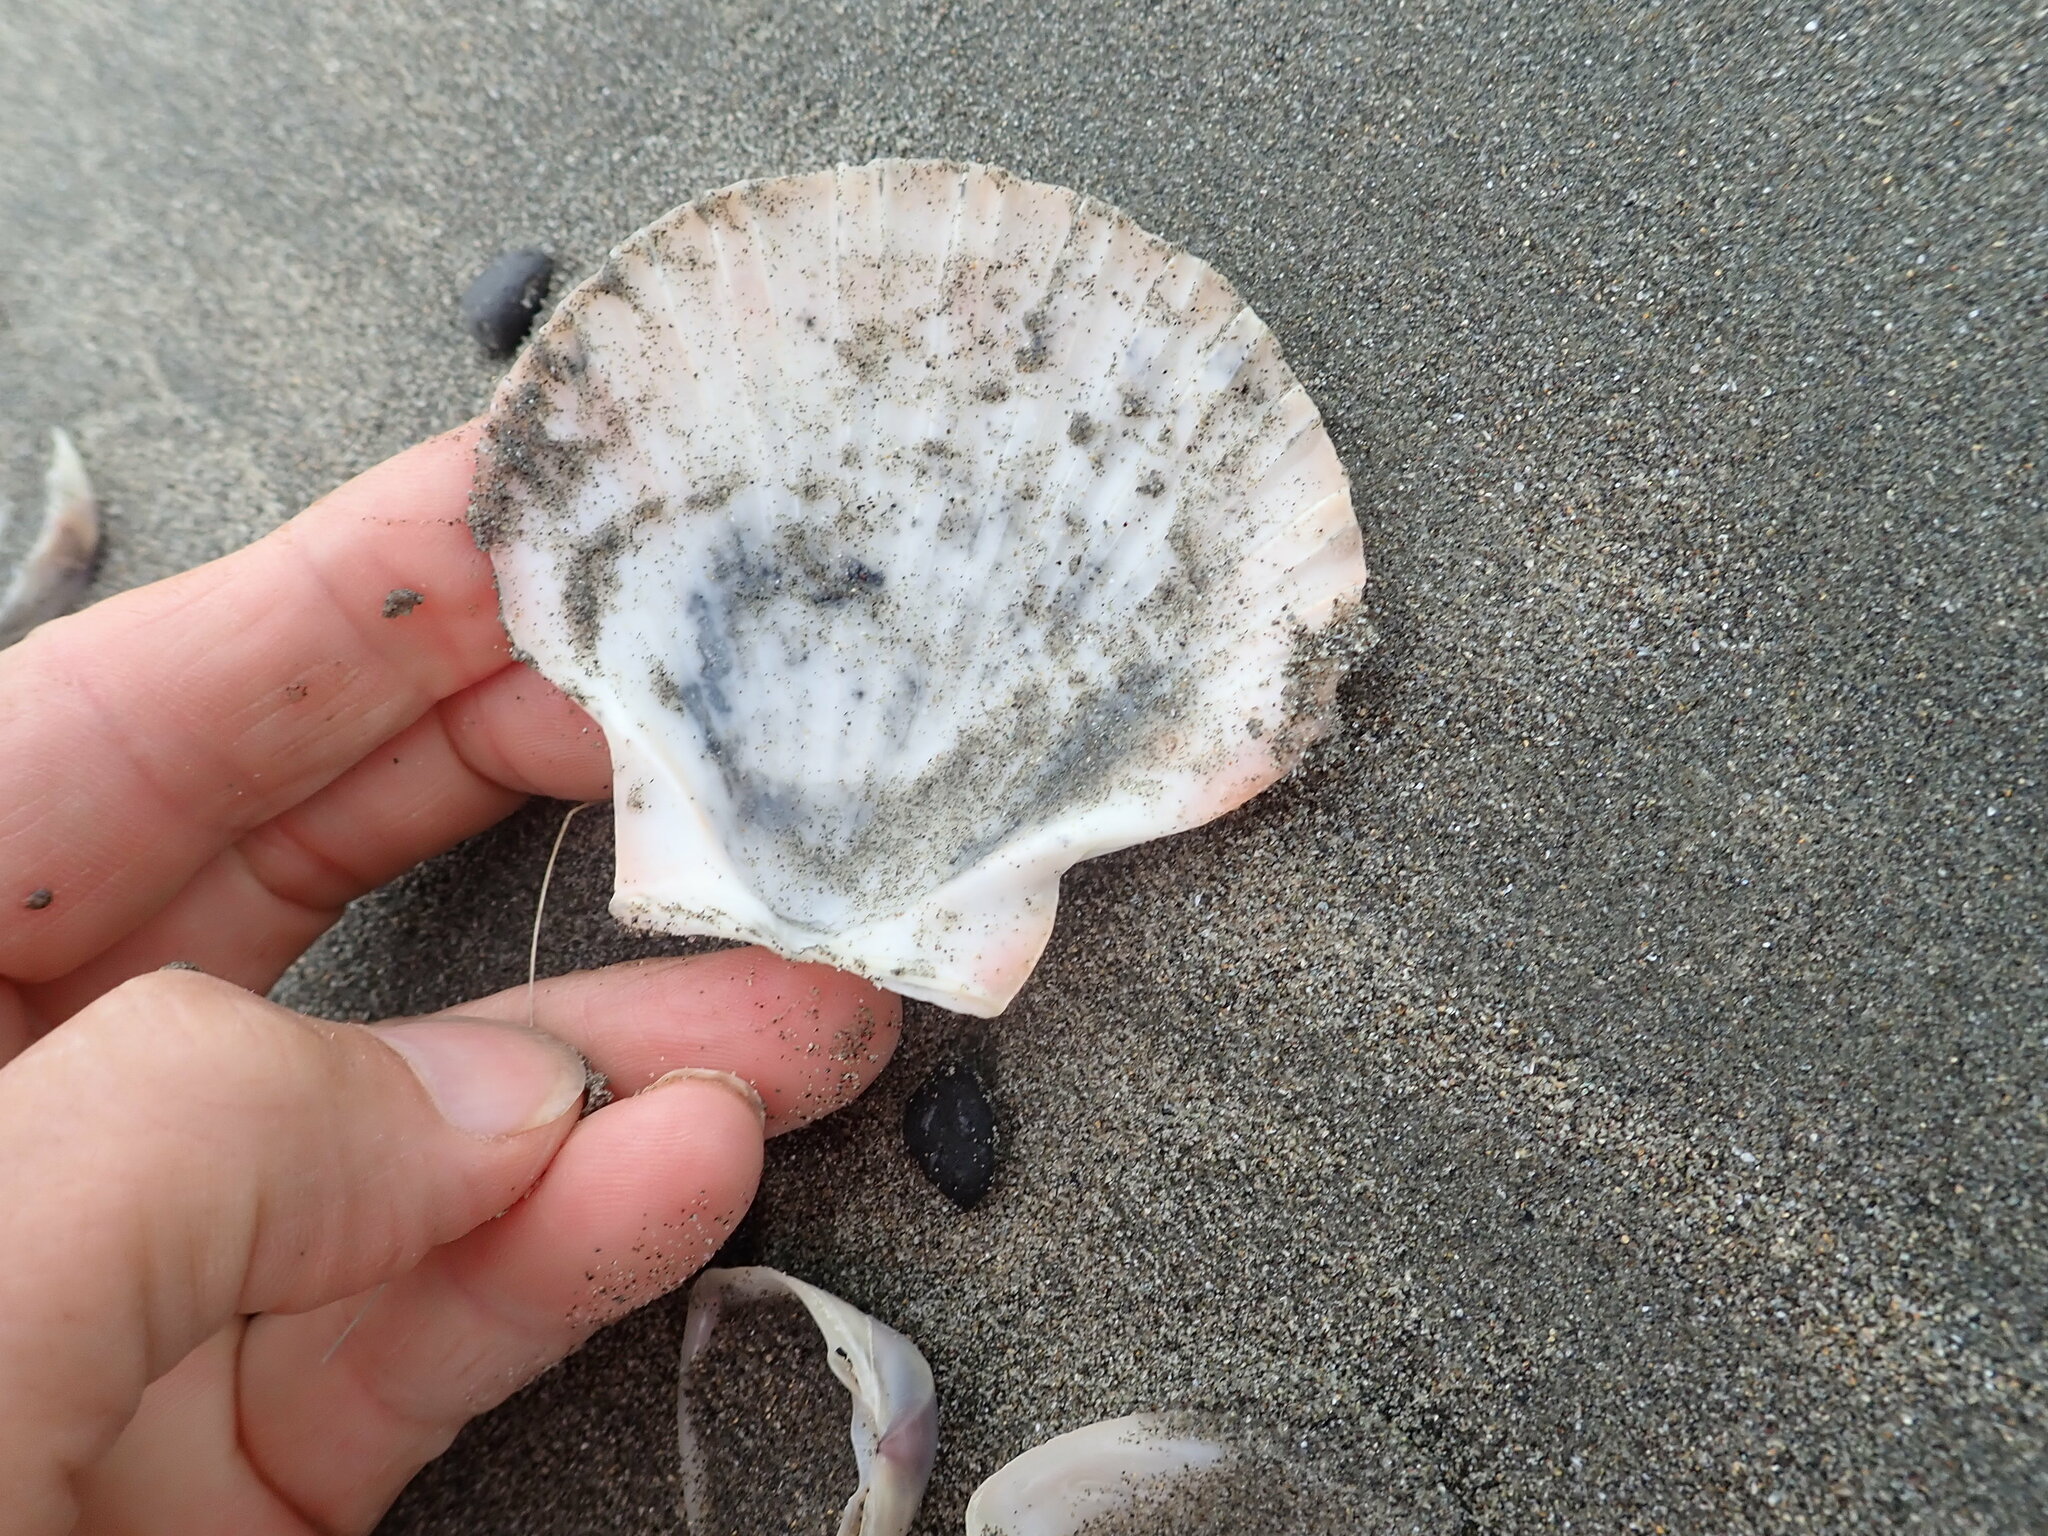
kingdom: Animalia
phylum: Mollusca
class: Bivalvia
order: Pectinida
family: Pectinidae
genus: Pecten
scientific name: Pecten novaezelandiae
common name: New zealand scallop
